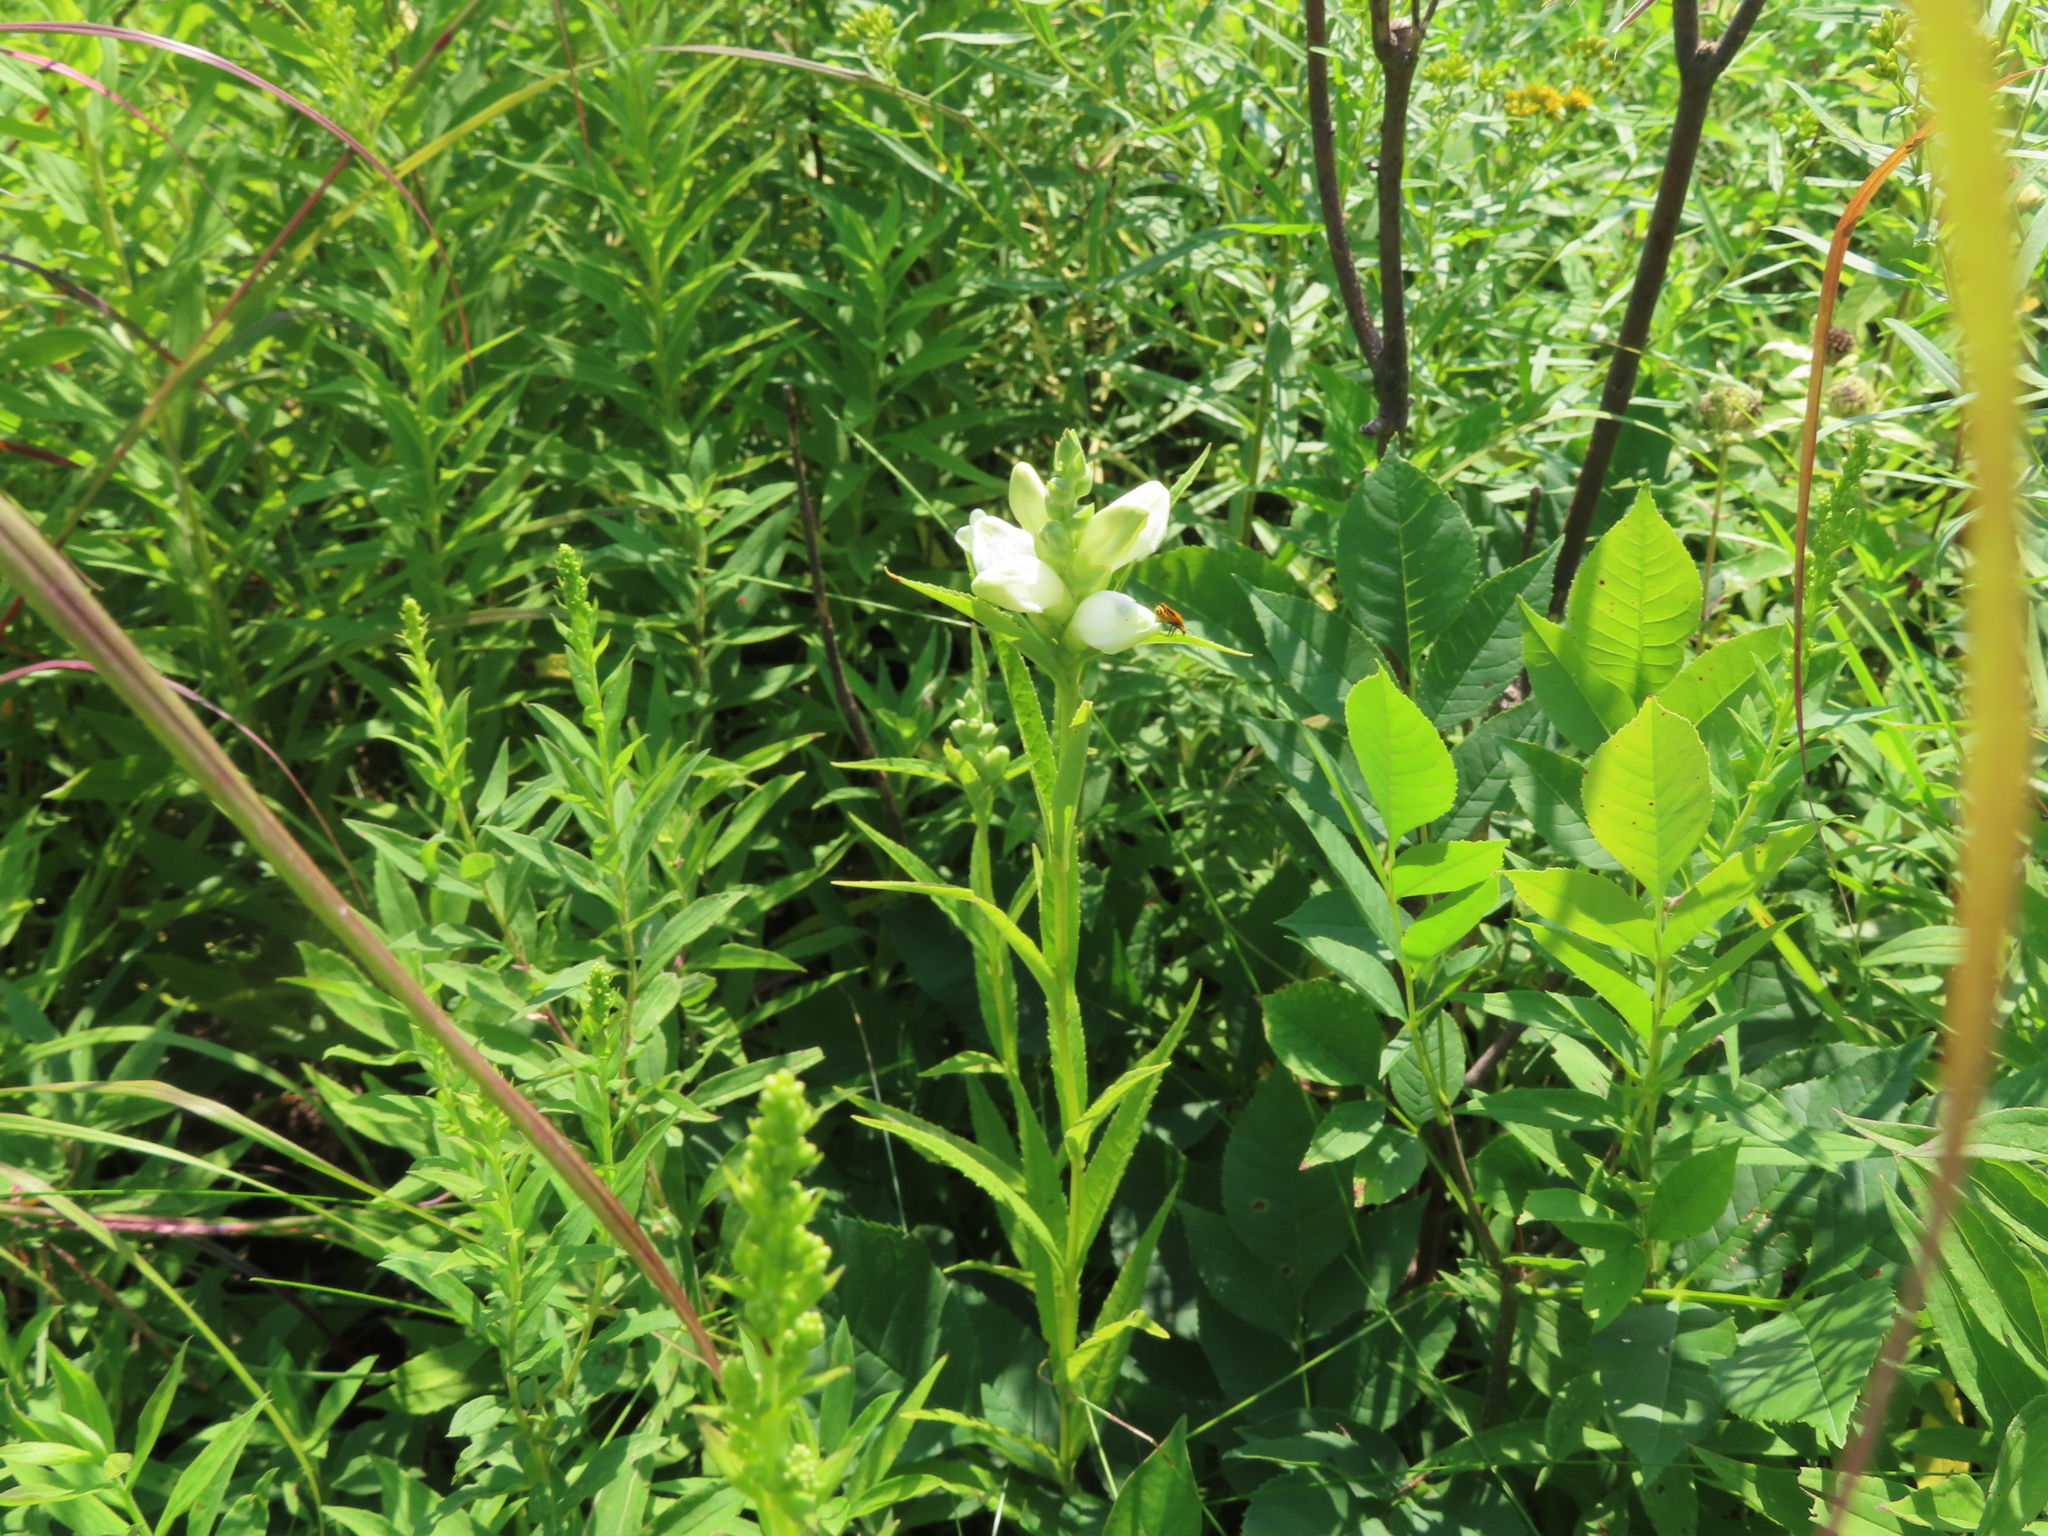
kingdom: Animalia
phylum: Arthropoda
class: Insecta
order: Coleoptera
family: Cantharidae
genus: Chauliognathus
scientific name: Chauliognathus pensylvanicus
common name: Goldenrod soldier beetle
